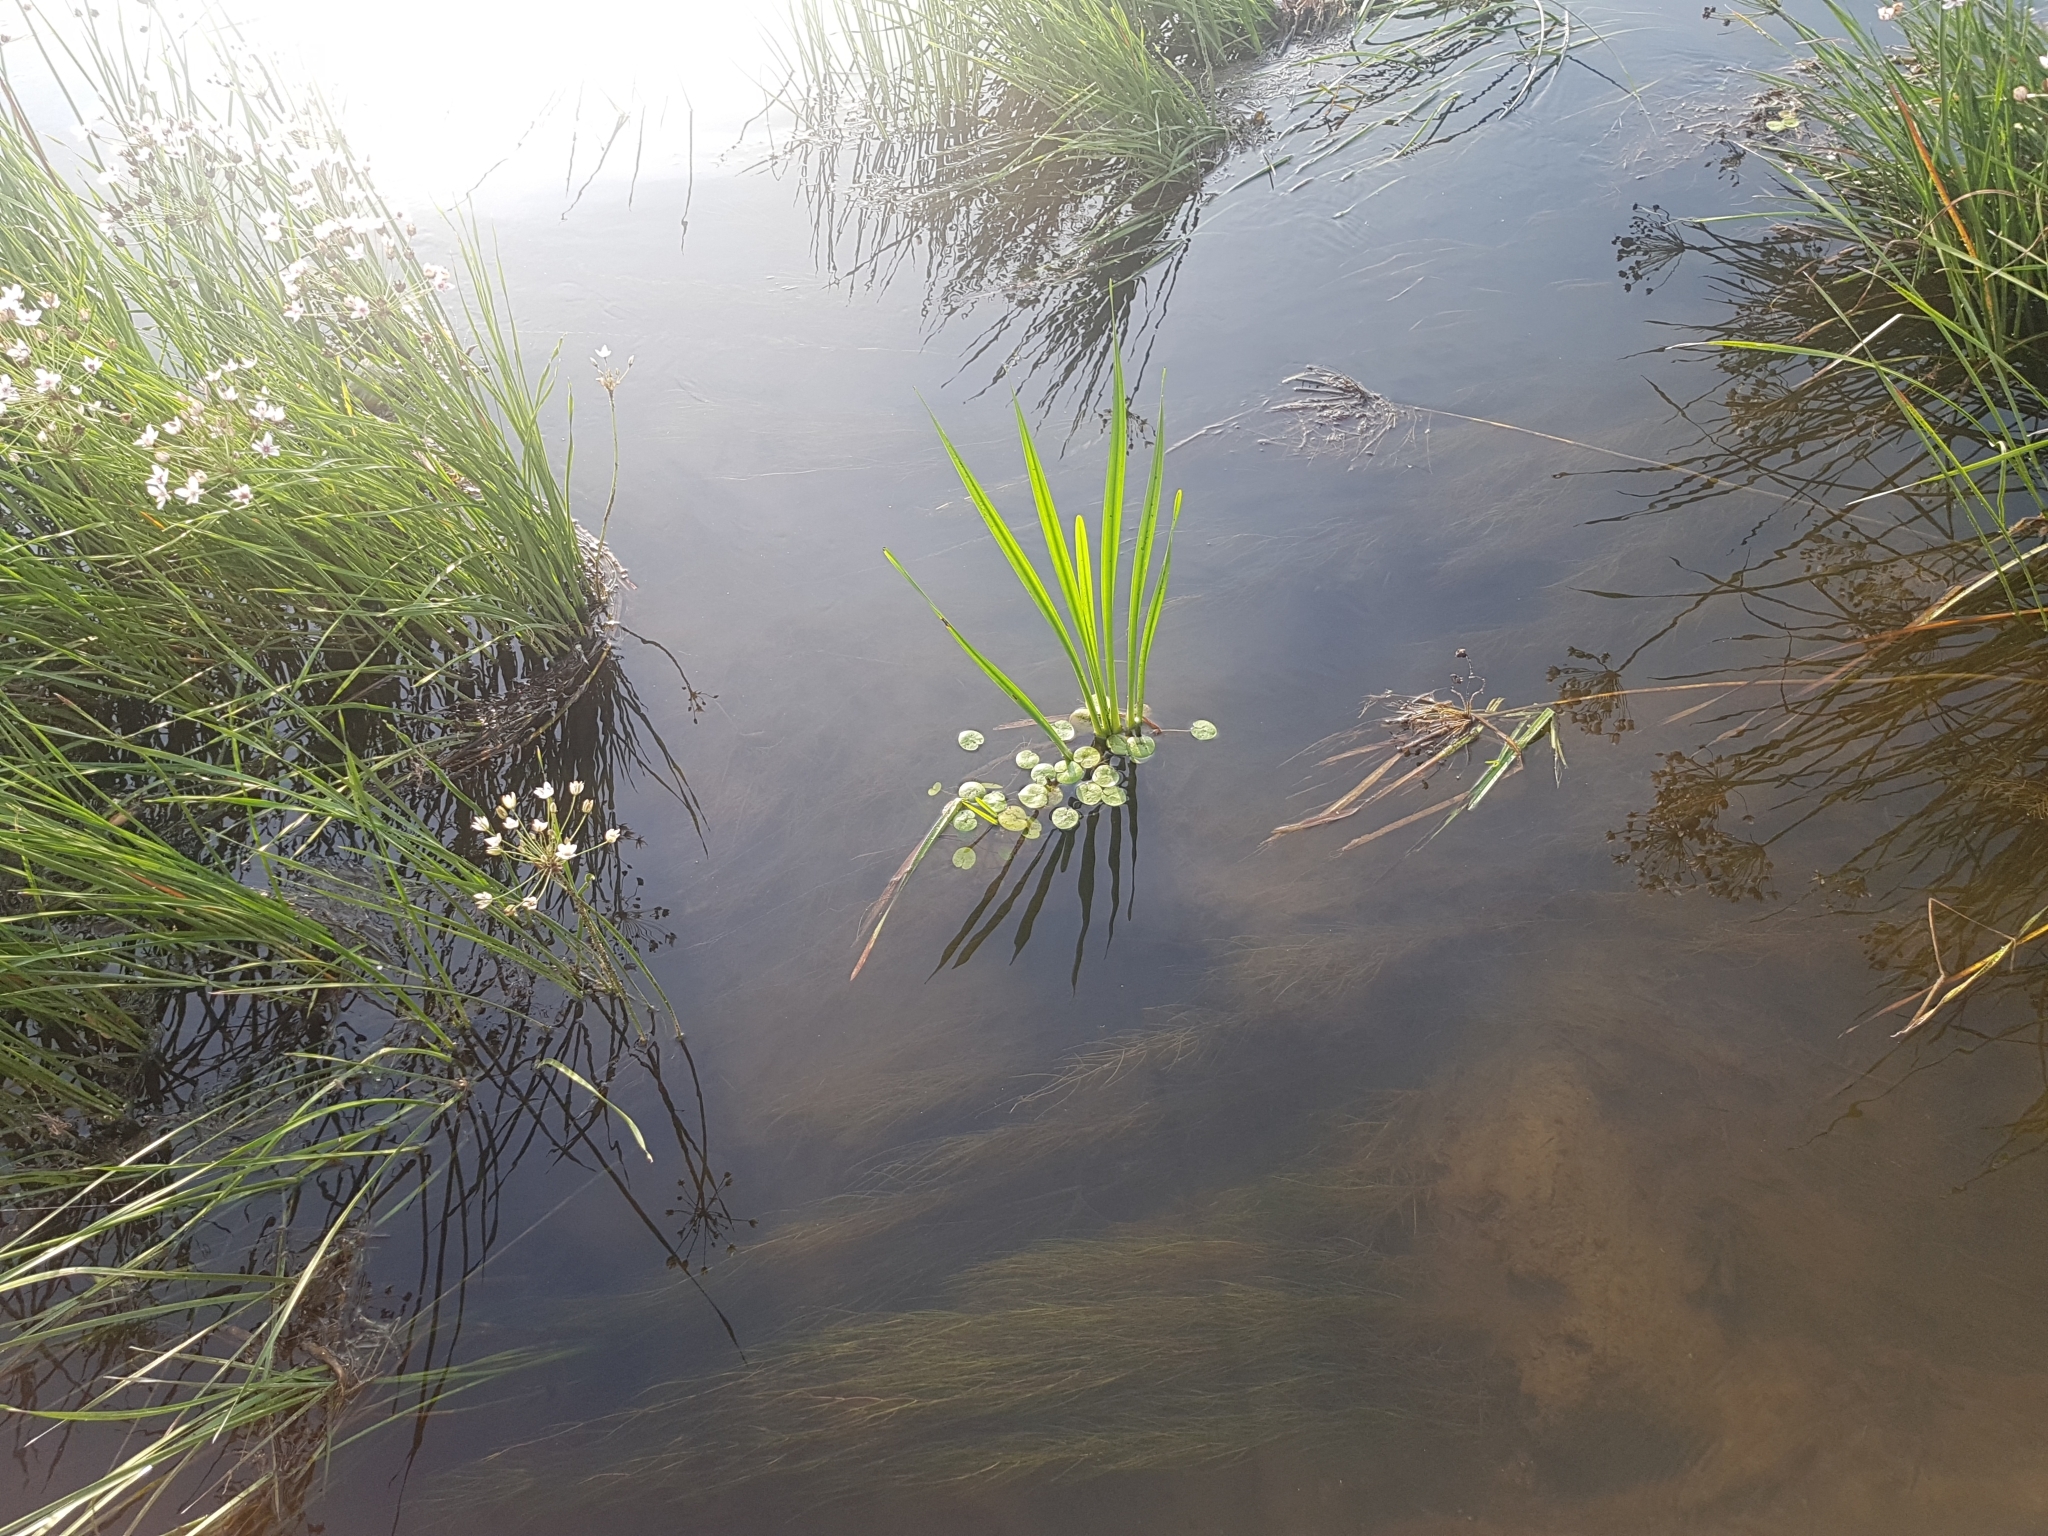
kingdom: Plantae
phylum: Tracheophyta
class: Liliopsida
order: Alismatales
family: Hydrocharitaceae
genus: Hydrocharis
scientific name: Hydrocharis morsus-ranae
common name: Frogbit
